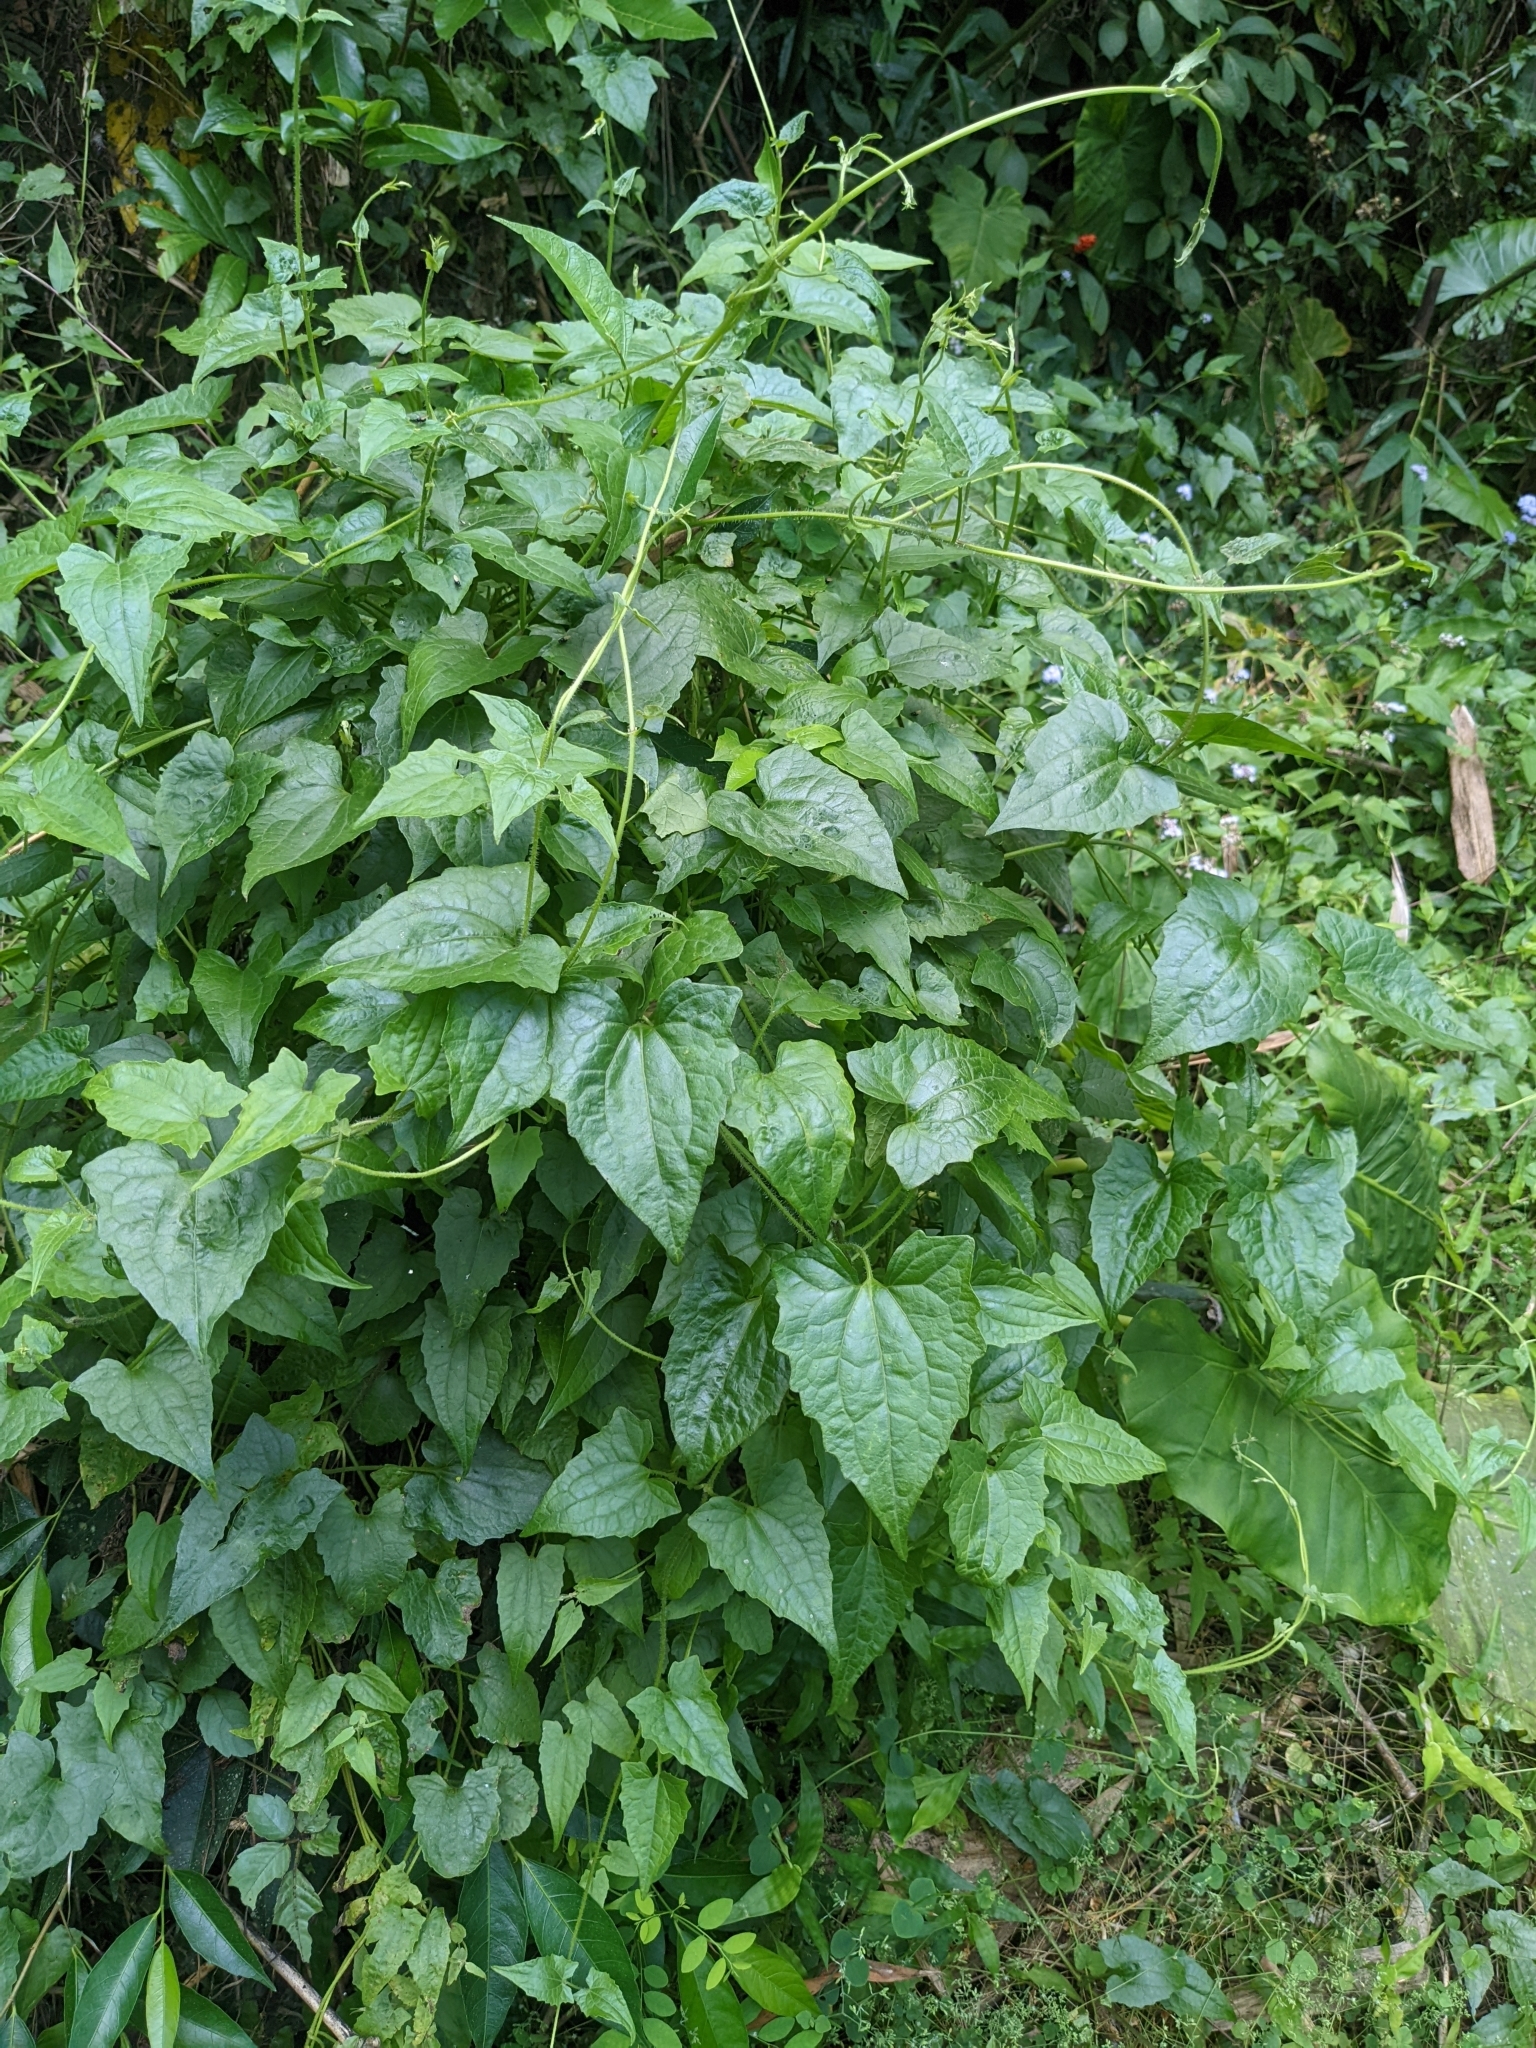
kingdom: Plantae
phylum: Tracheophyta
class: Magnoliopsida
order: Asterales
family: Asteraceae
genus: Mikania
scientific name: Mikania micrantha
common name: Mile-a-minute
